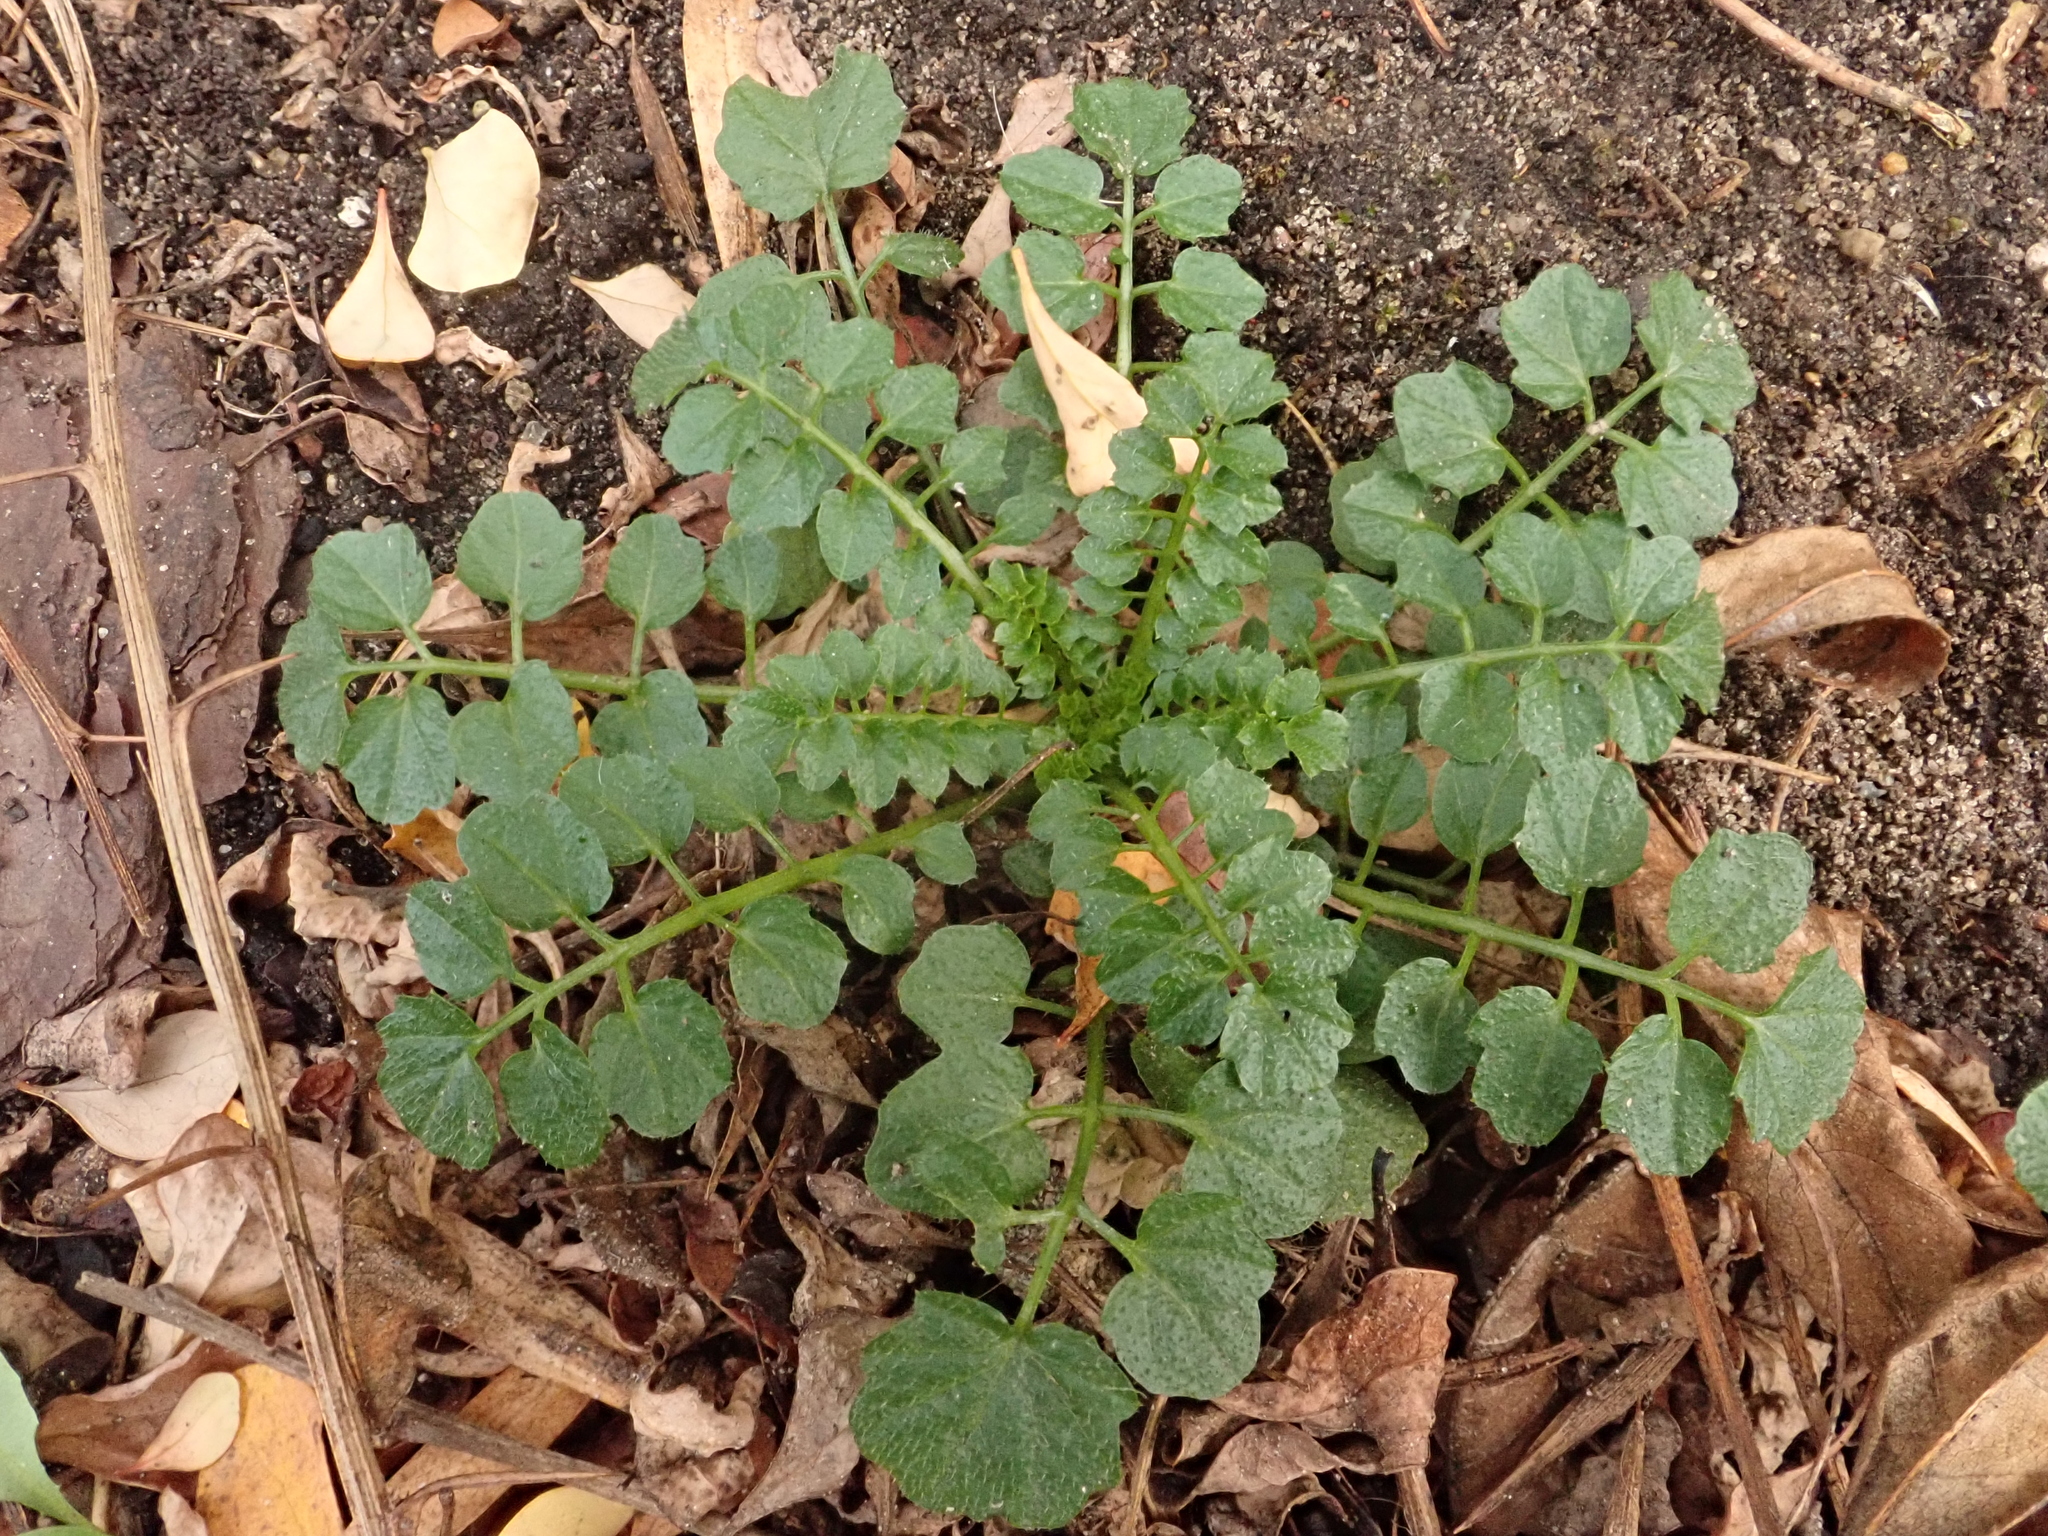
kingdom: Plantae
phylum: Tracheophyta
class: Magnoliopsida
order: Brassicales
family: Brassicaceae
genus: Cardamine
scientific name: Cardamine flexuosa
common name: Woodland bittercress
